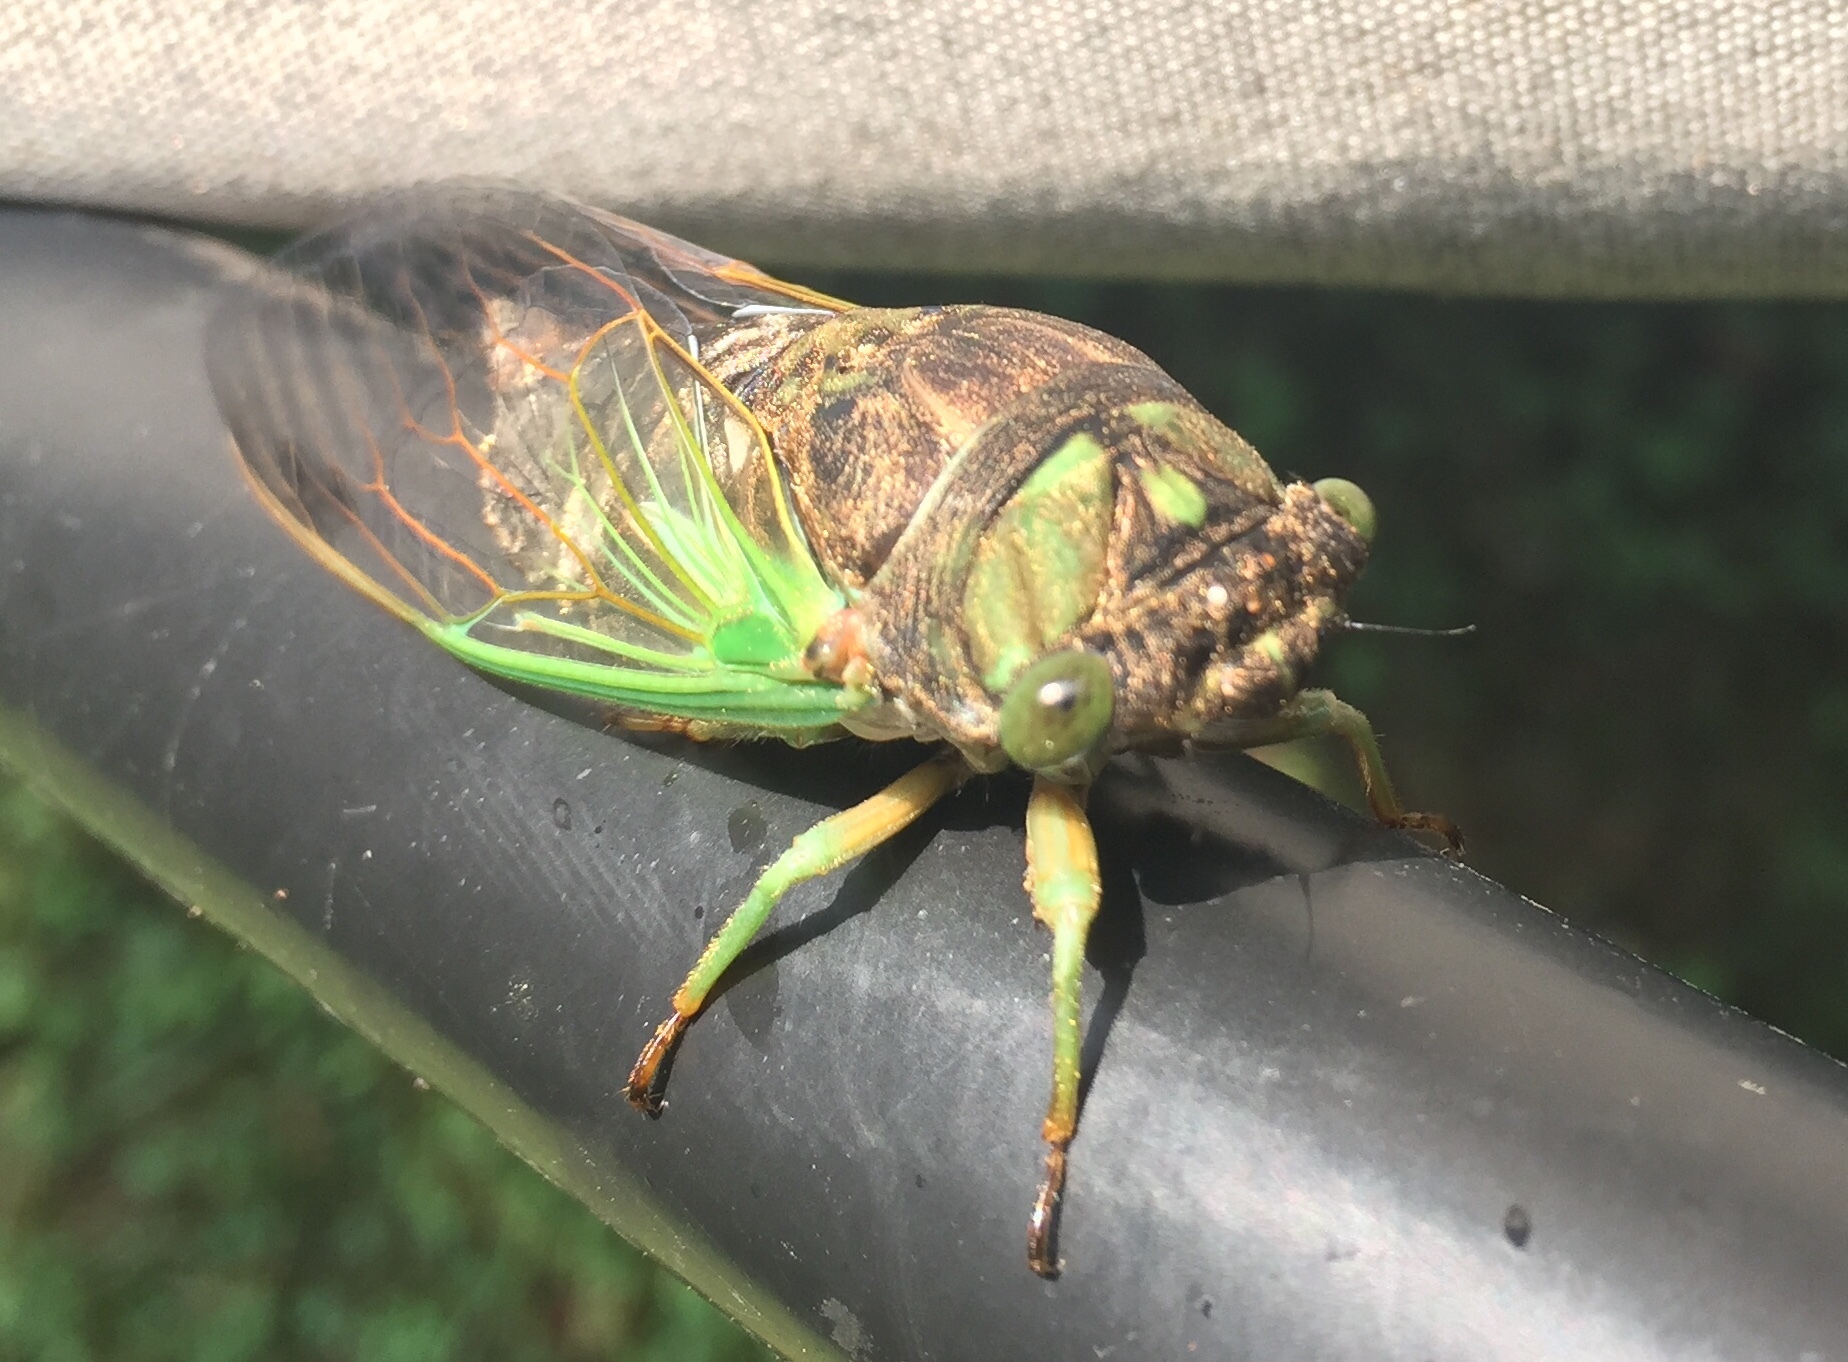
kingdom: Animalia
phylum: Arthropoda
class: Insecta
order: Hemiptera
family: Cicadidae
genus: Neotibicen
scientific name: Neotibicen tibicen
